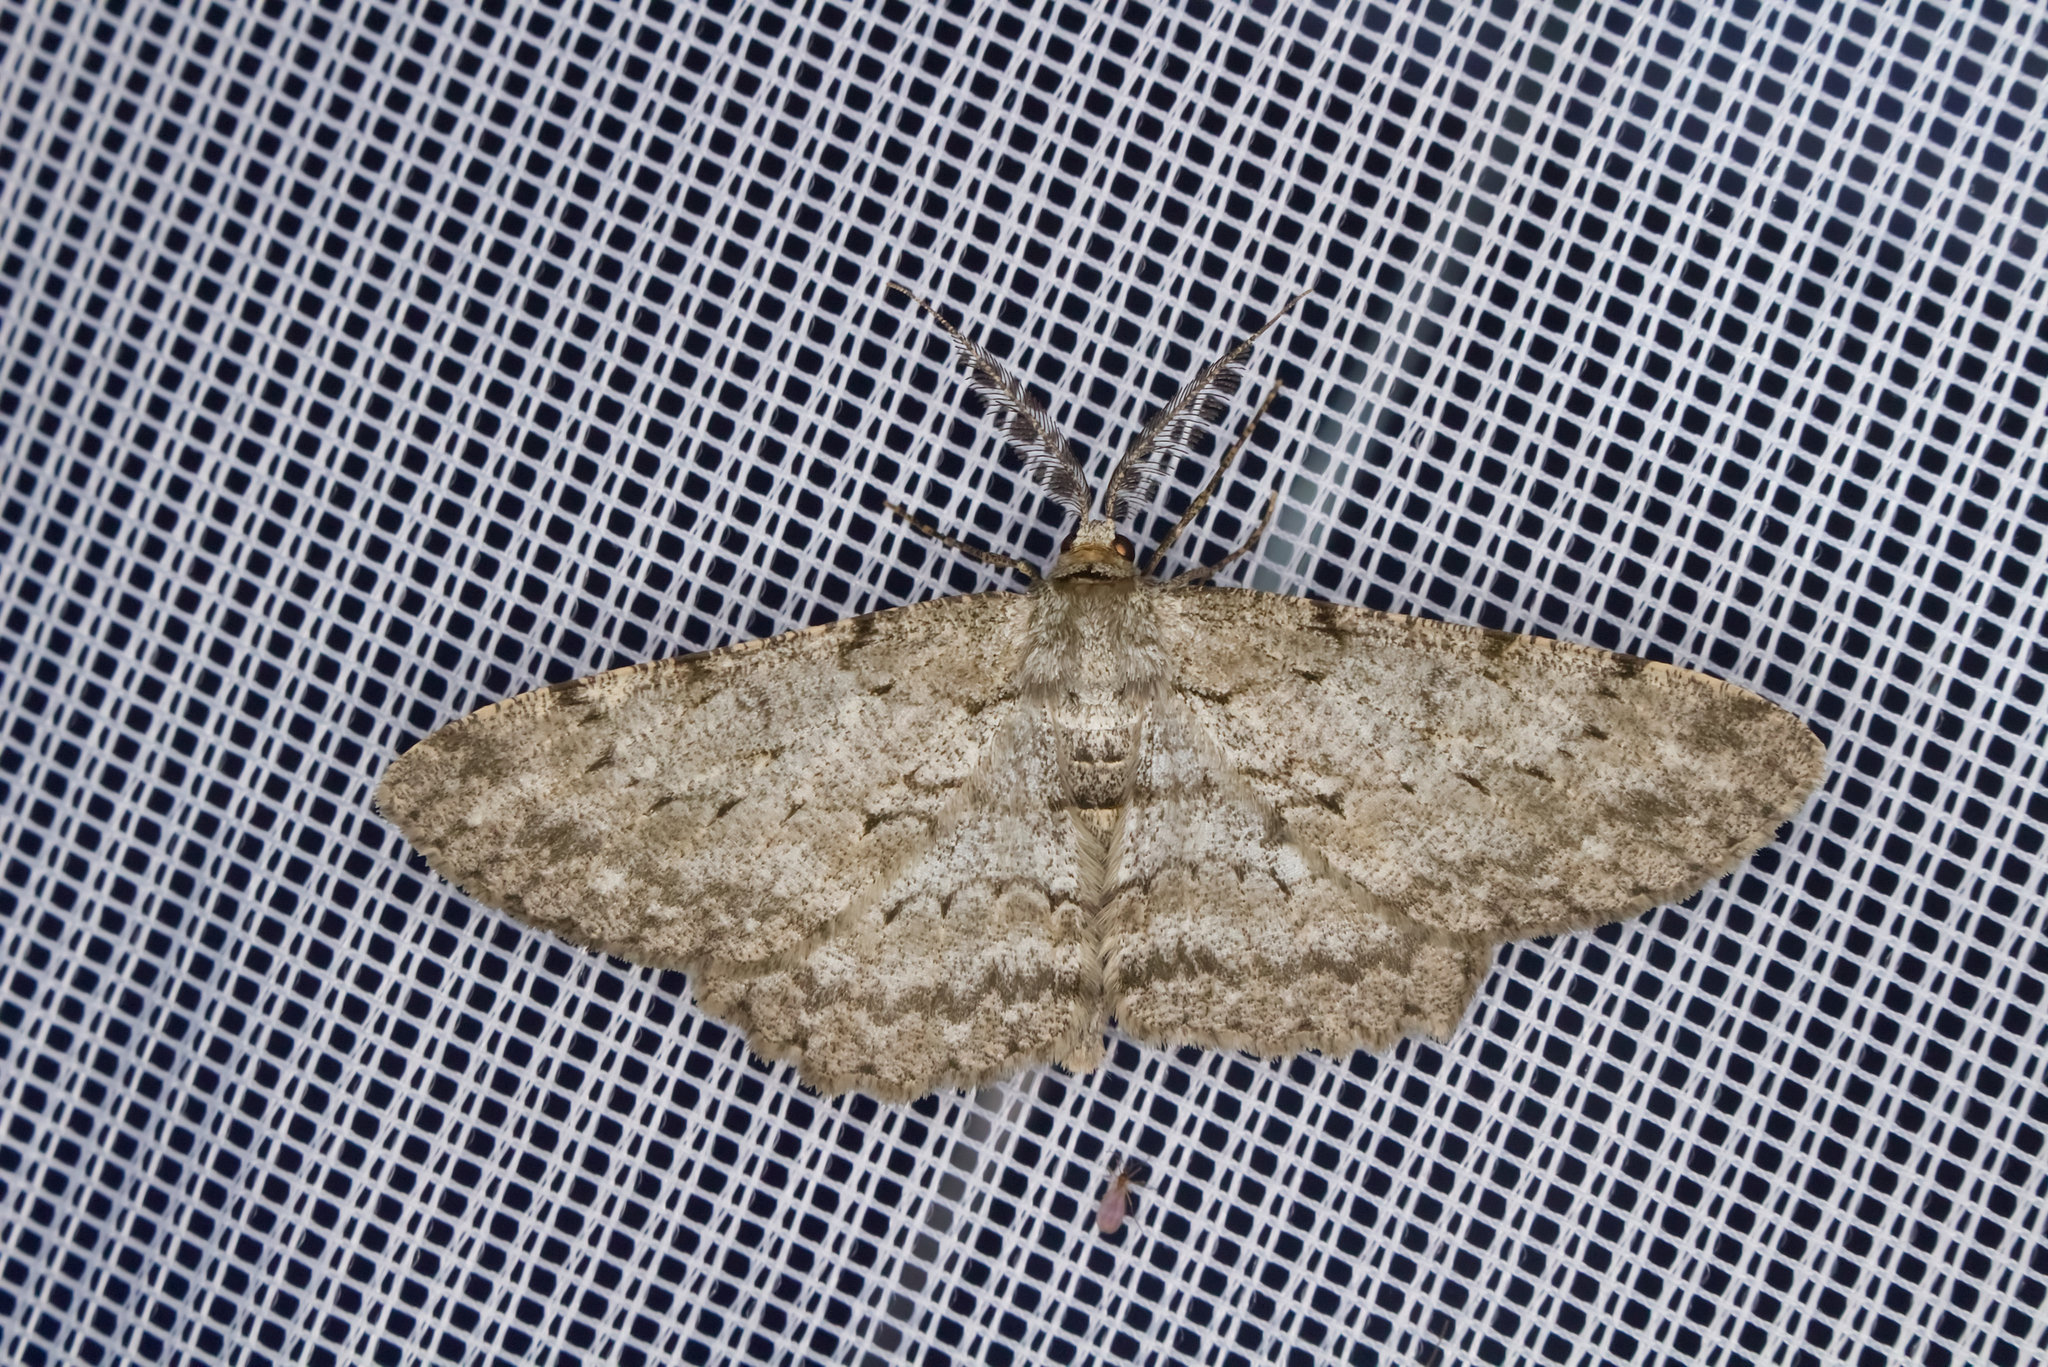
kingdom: Animalia
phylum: Arthropoda
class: Insecta
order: Lepidoptera
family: Geometridae
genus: Hypomecis
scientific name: Hypomecis punctinalis
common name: Pale oak beauty
